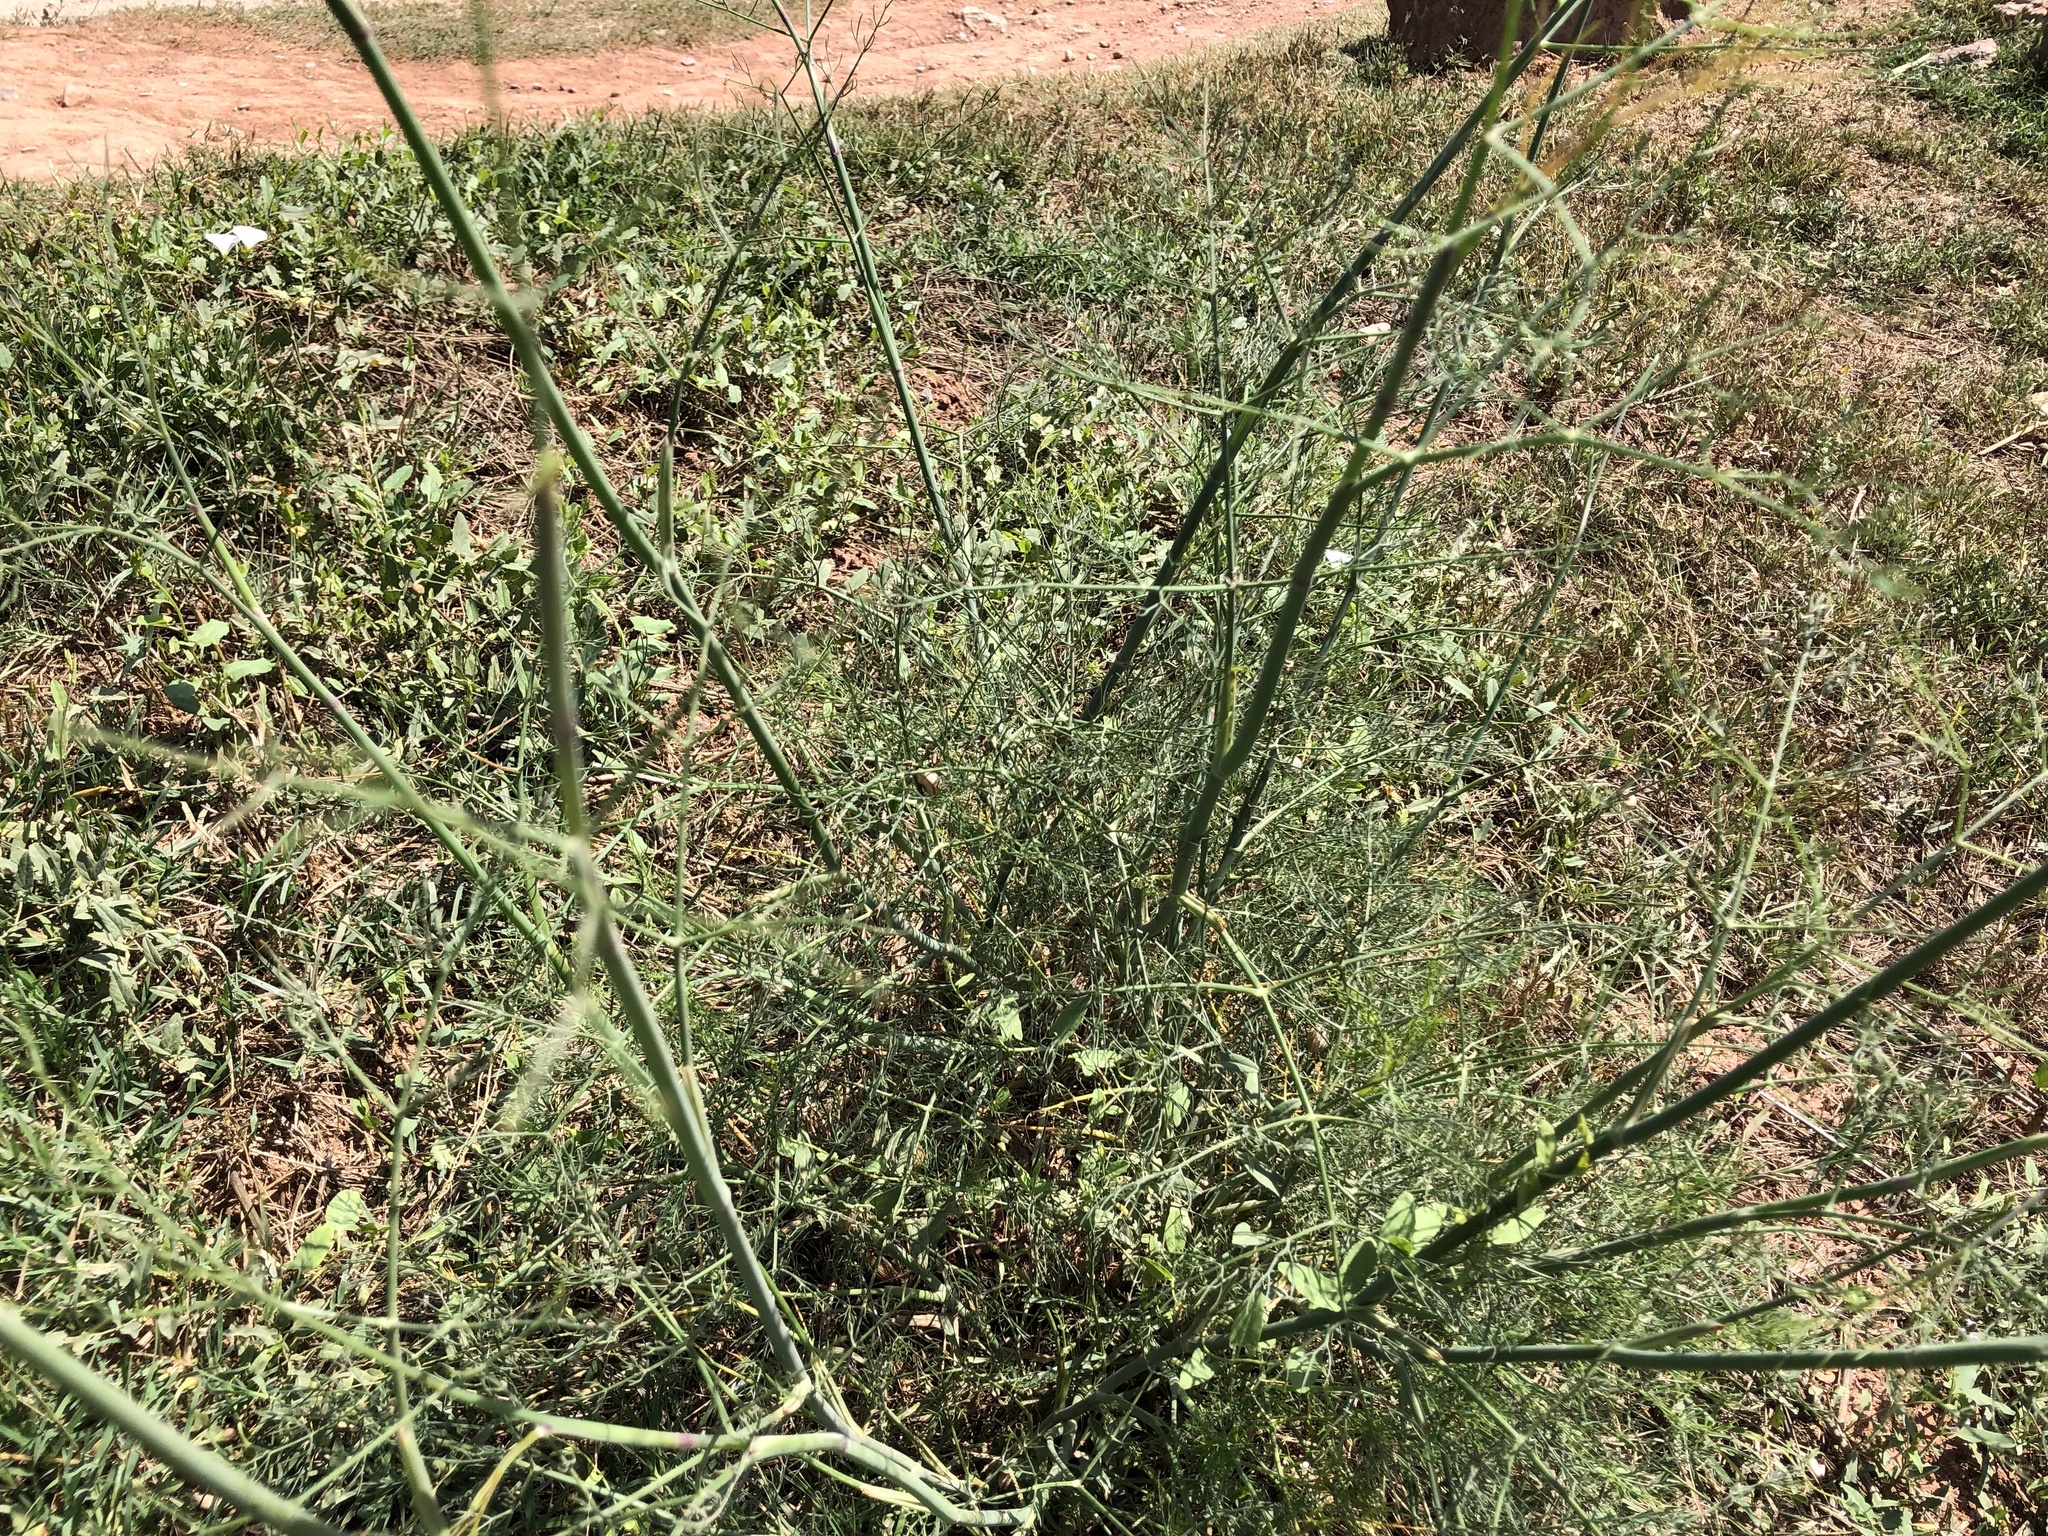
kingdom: Plantae
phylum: Tracheophyta
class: Magnoliopsida
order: Apiales
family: Apiaceae
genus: Foeniculum
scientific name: Foeniculum vulgare
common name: Fennel
